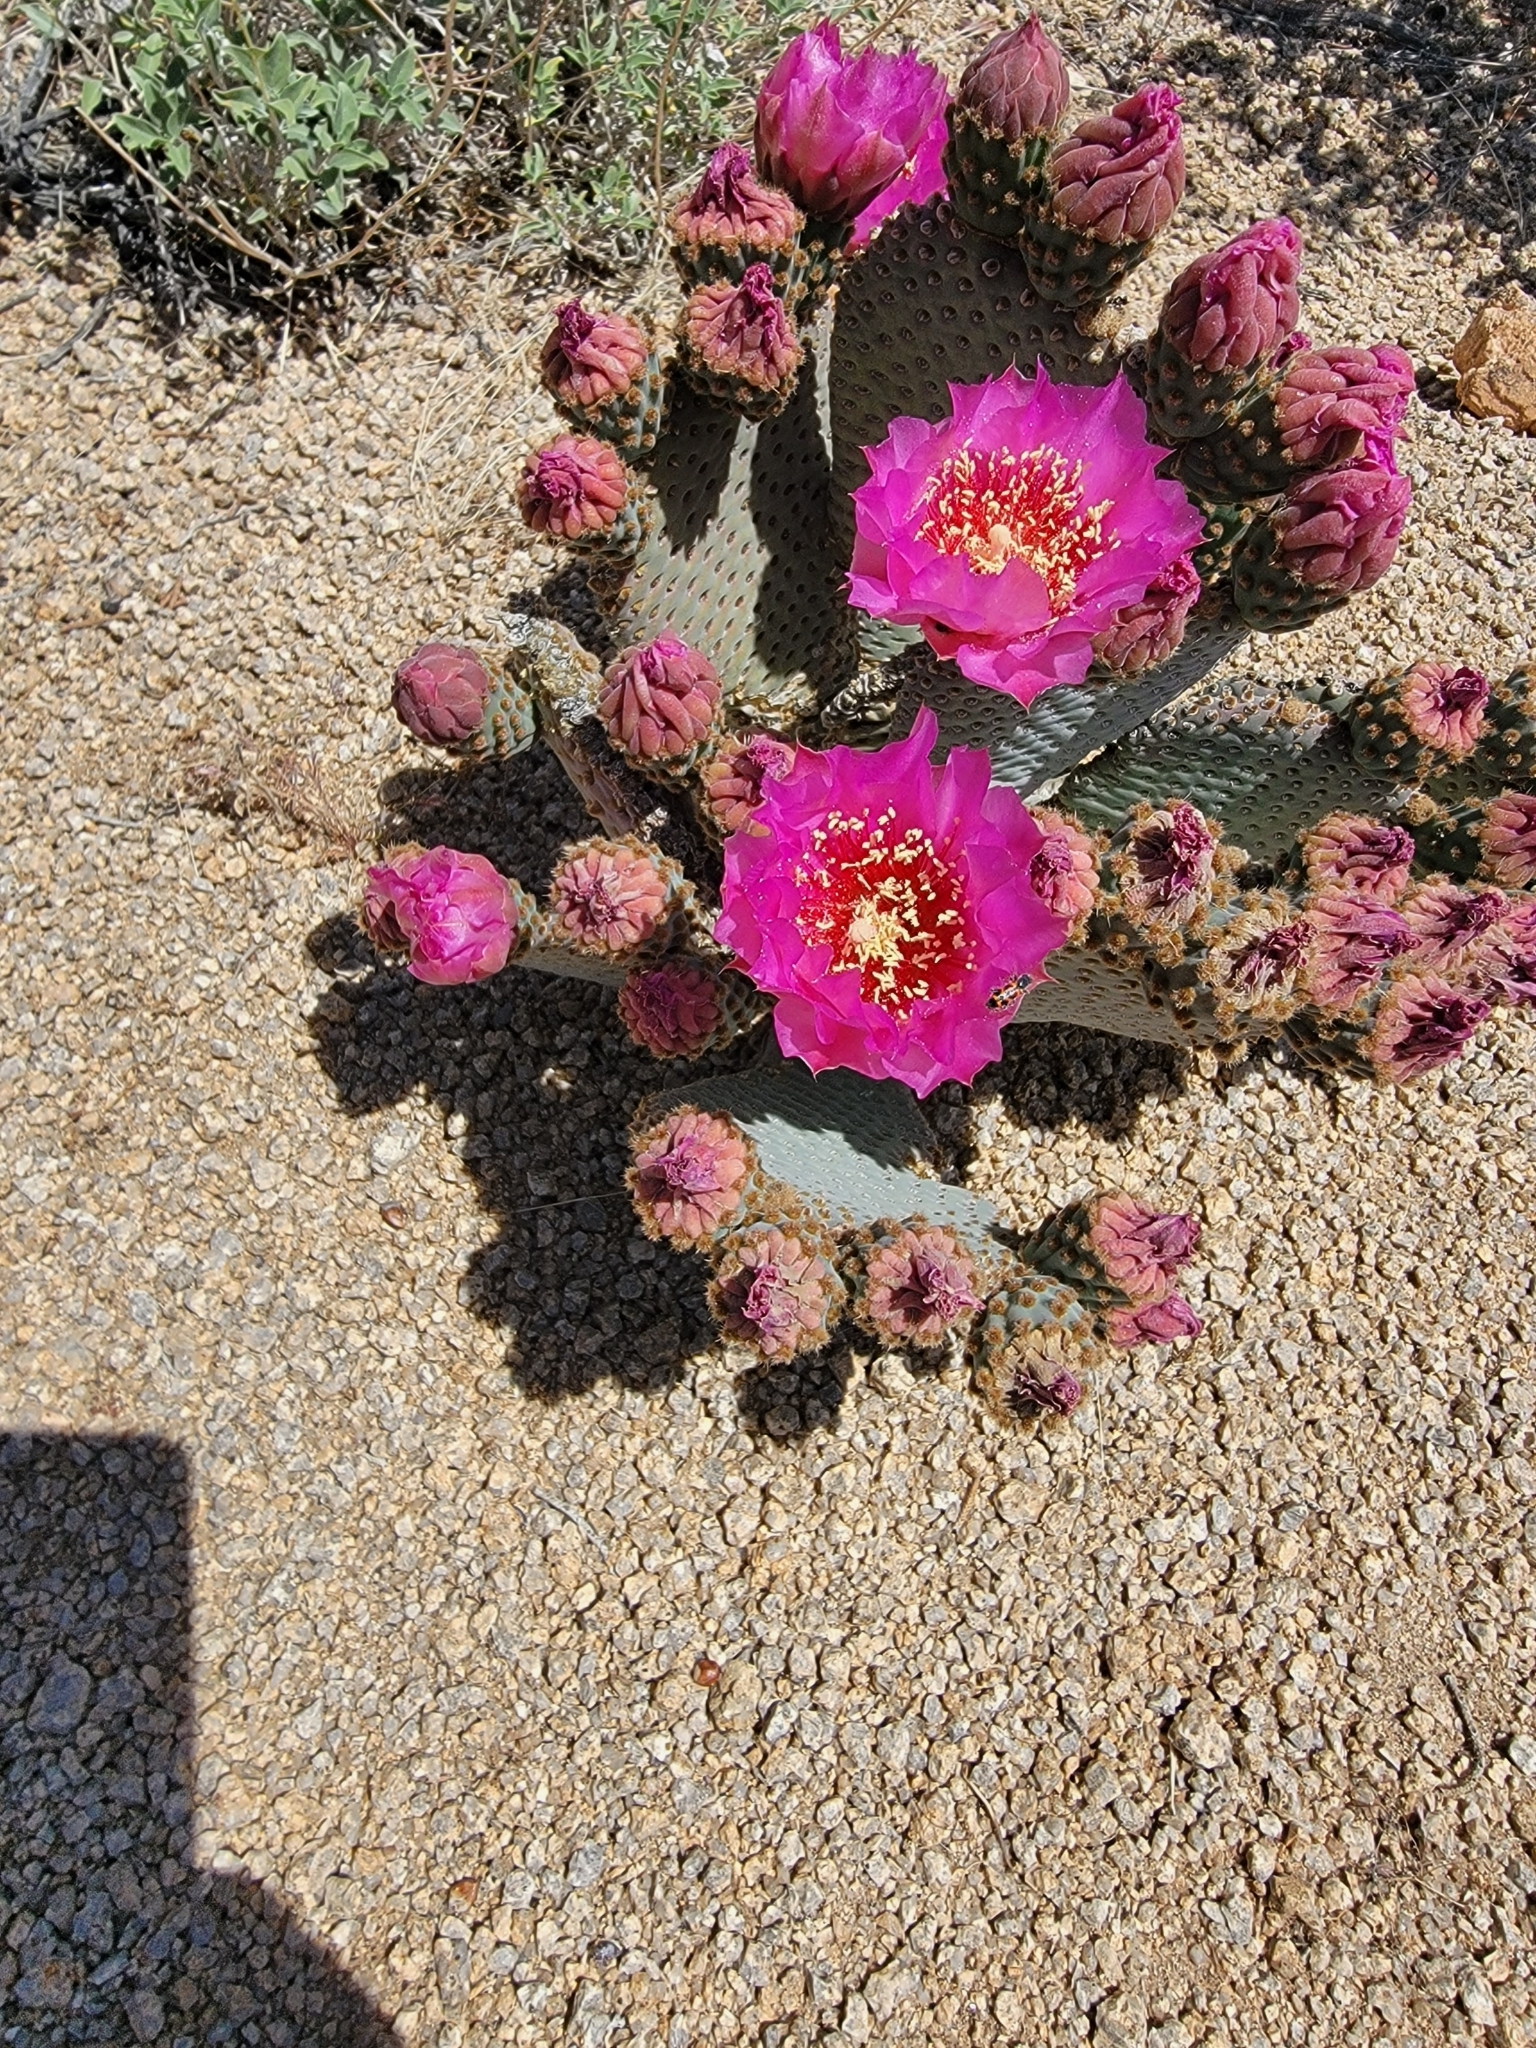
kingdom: Plantae
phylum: Tracheophyta
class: Magnoliopsida
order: Caryophyllales
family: Cactaceae
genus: Opuntia
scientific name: Opuntia basilaris
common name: Beavertail prickly-pear
